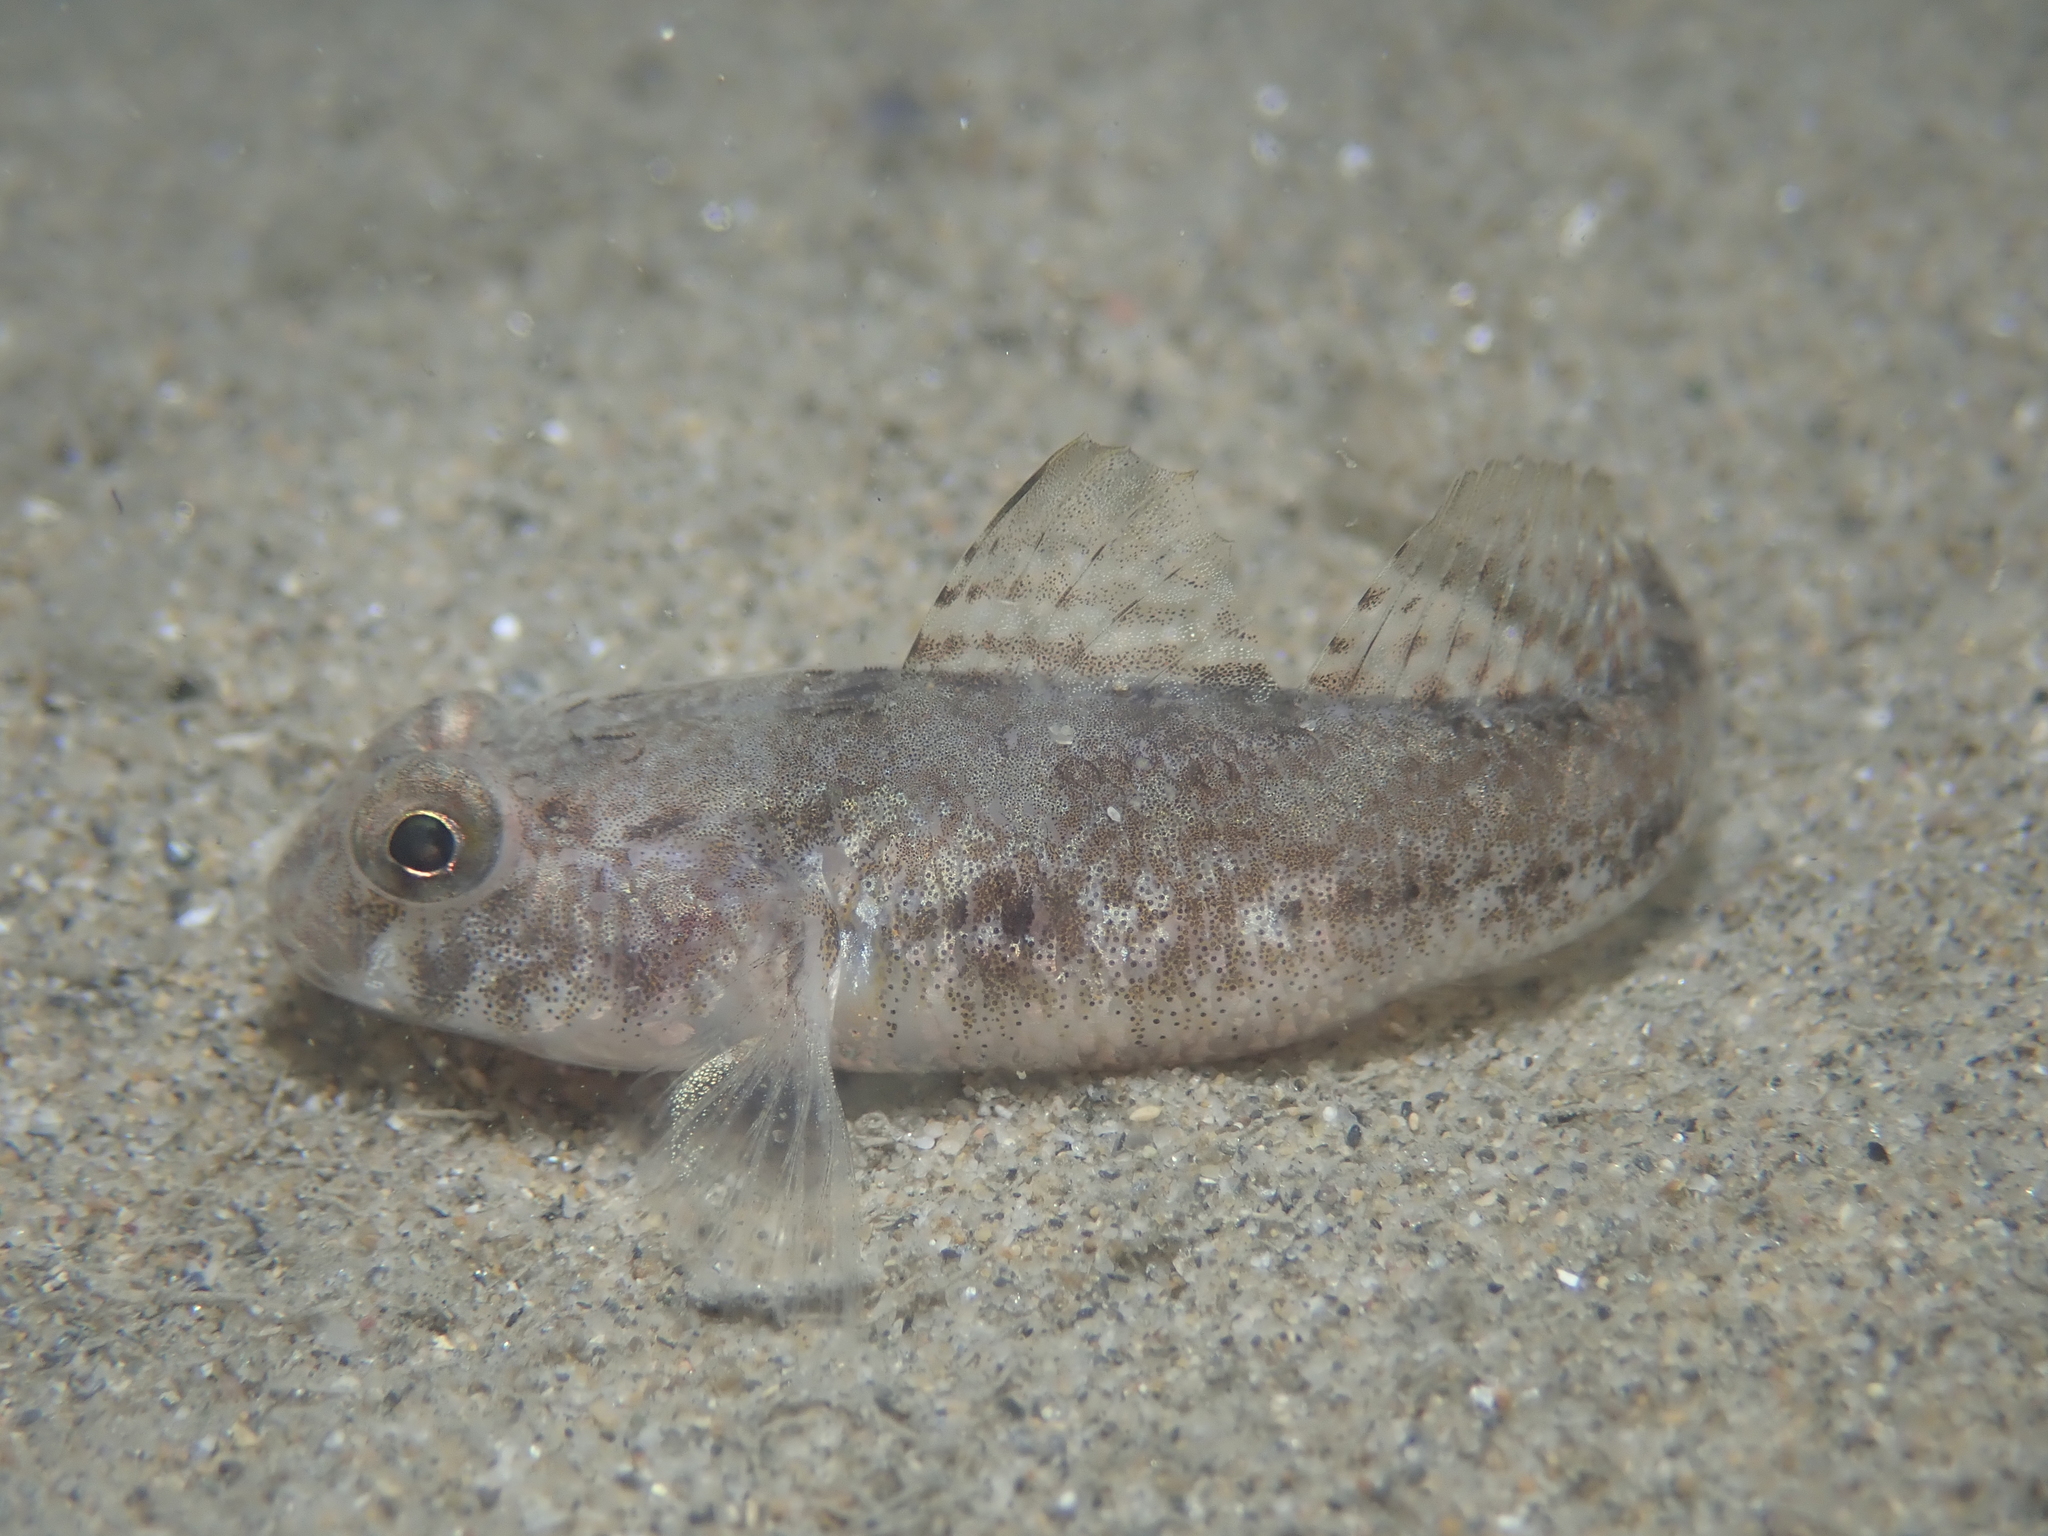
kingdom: Animalia
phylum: Chordata
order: Perciformes
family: Gobiidae
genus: Gobius
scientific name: Gobius niger
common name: Black goby
